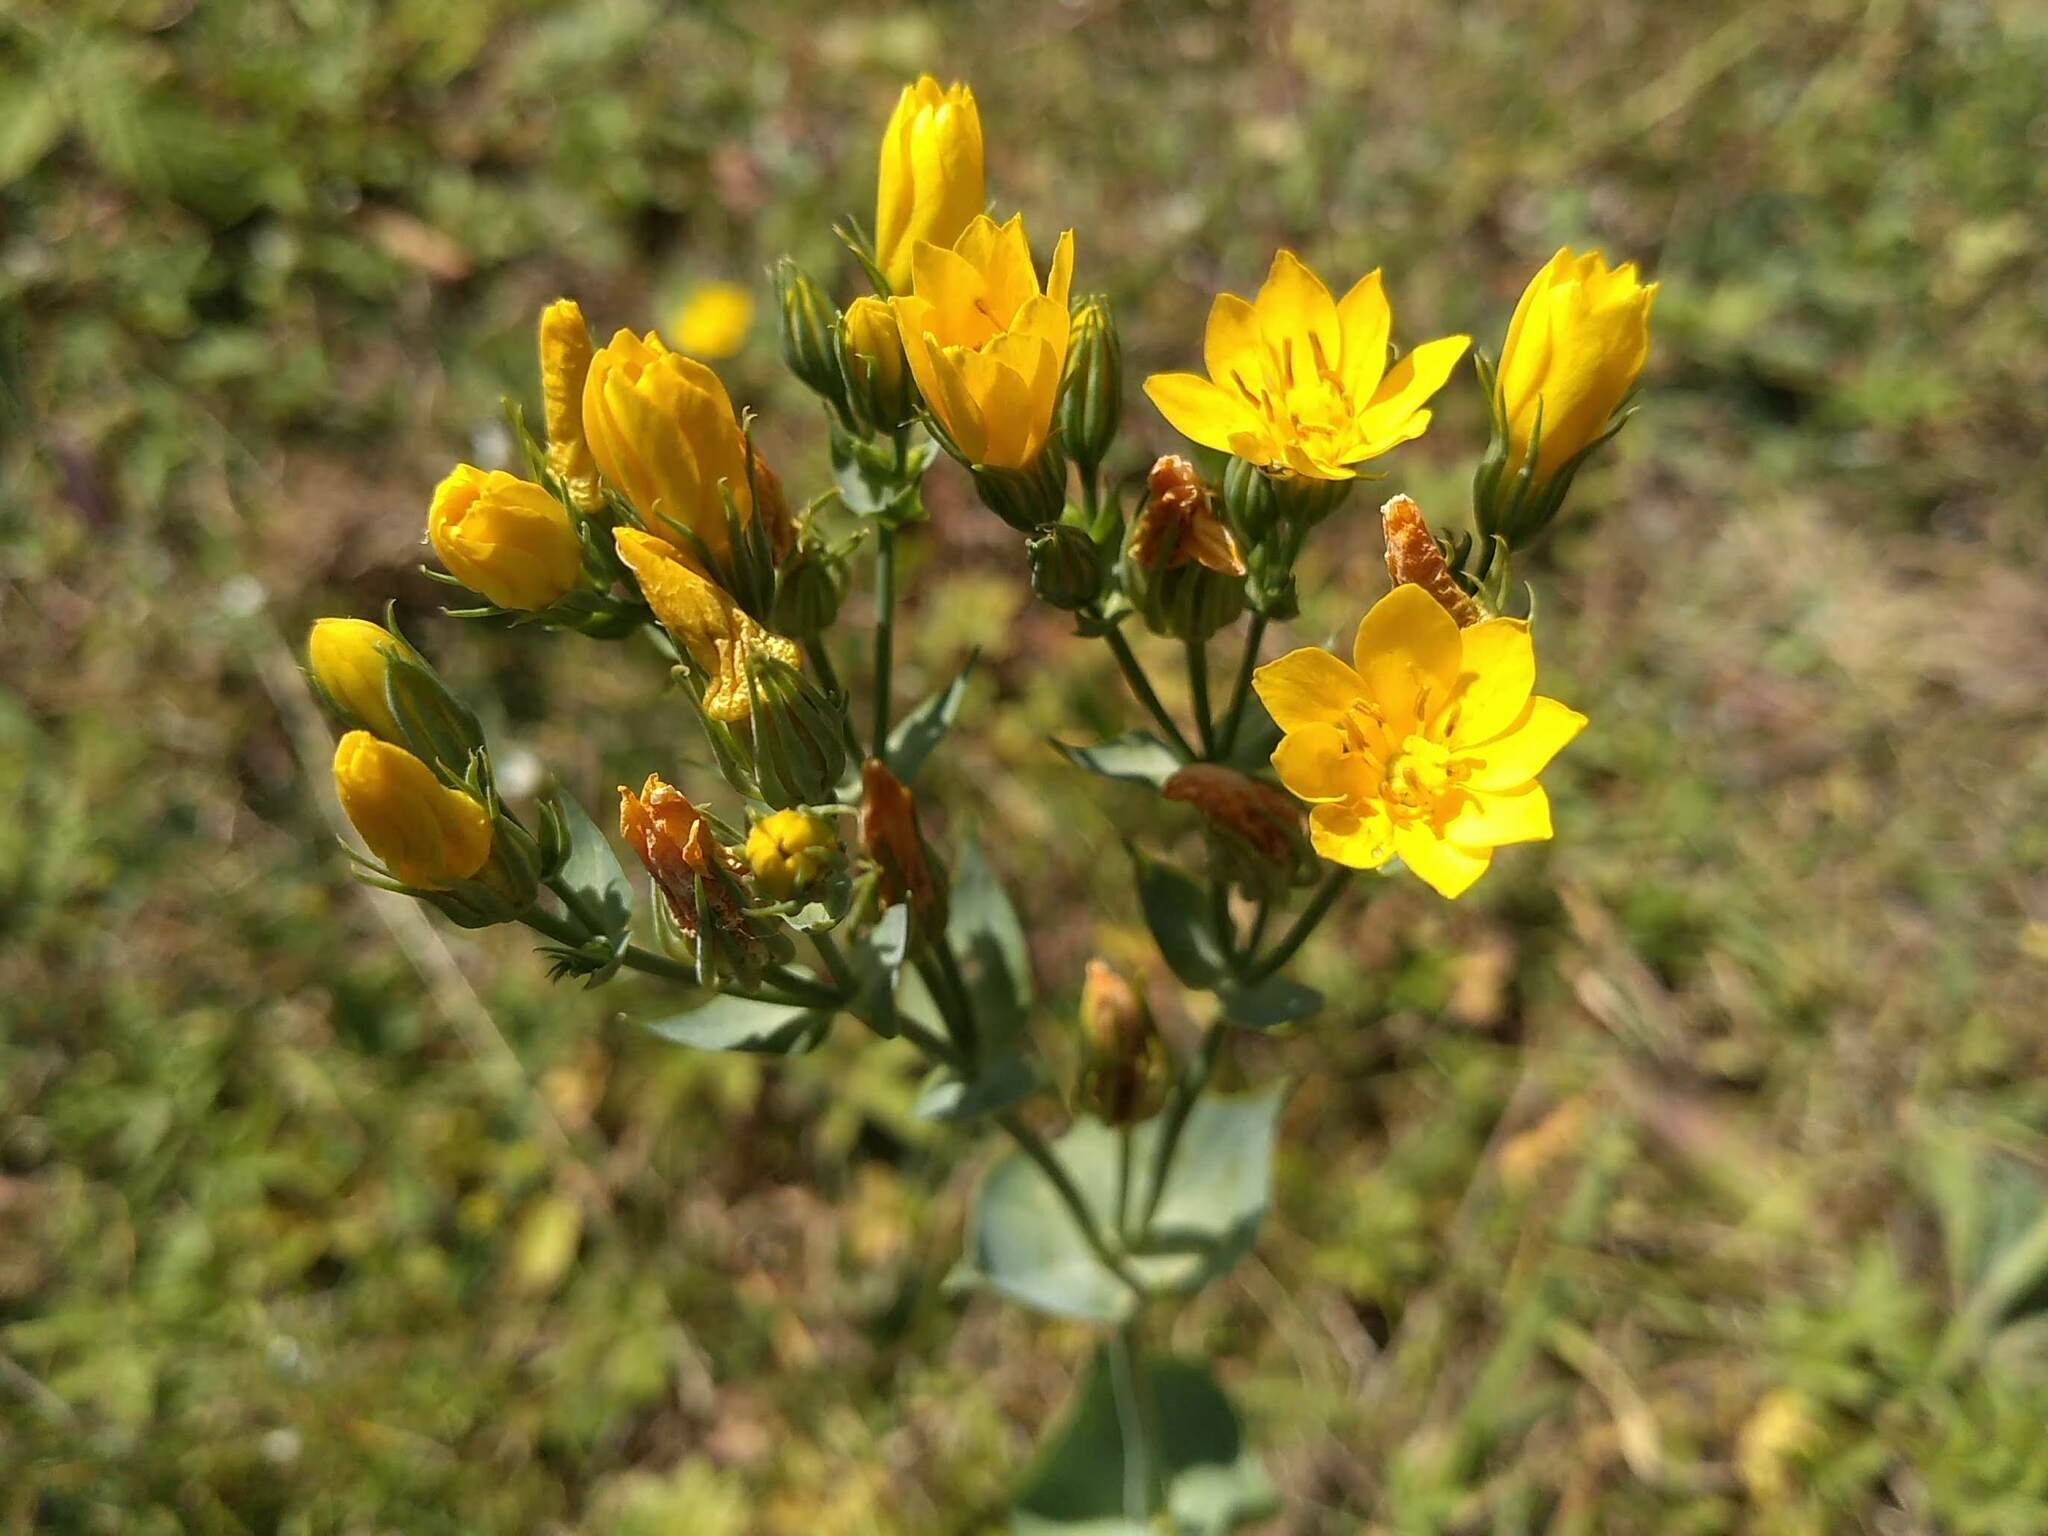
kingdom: Plantae
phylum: Tracheophyta
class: Magnoliopsida
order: Gentianales
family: Gentianaceae
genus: Blackstonia
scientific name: Blackstonia perfoliata
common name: Yellow-wort
